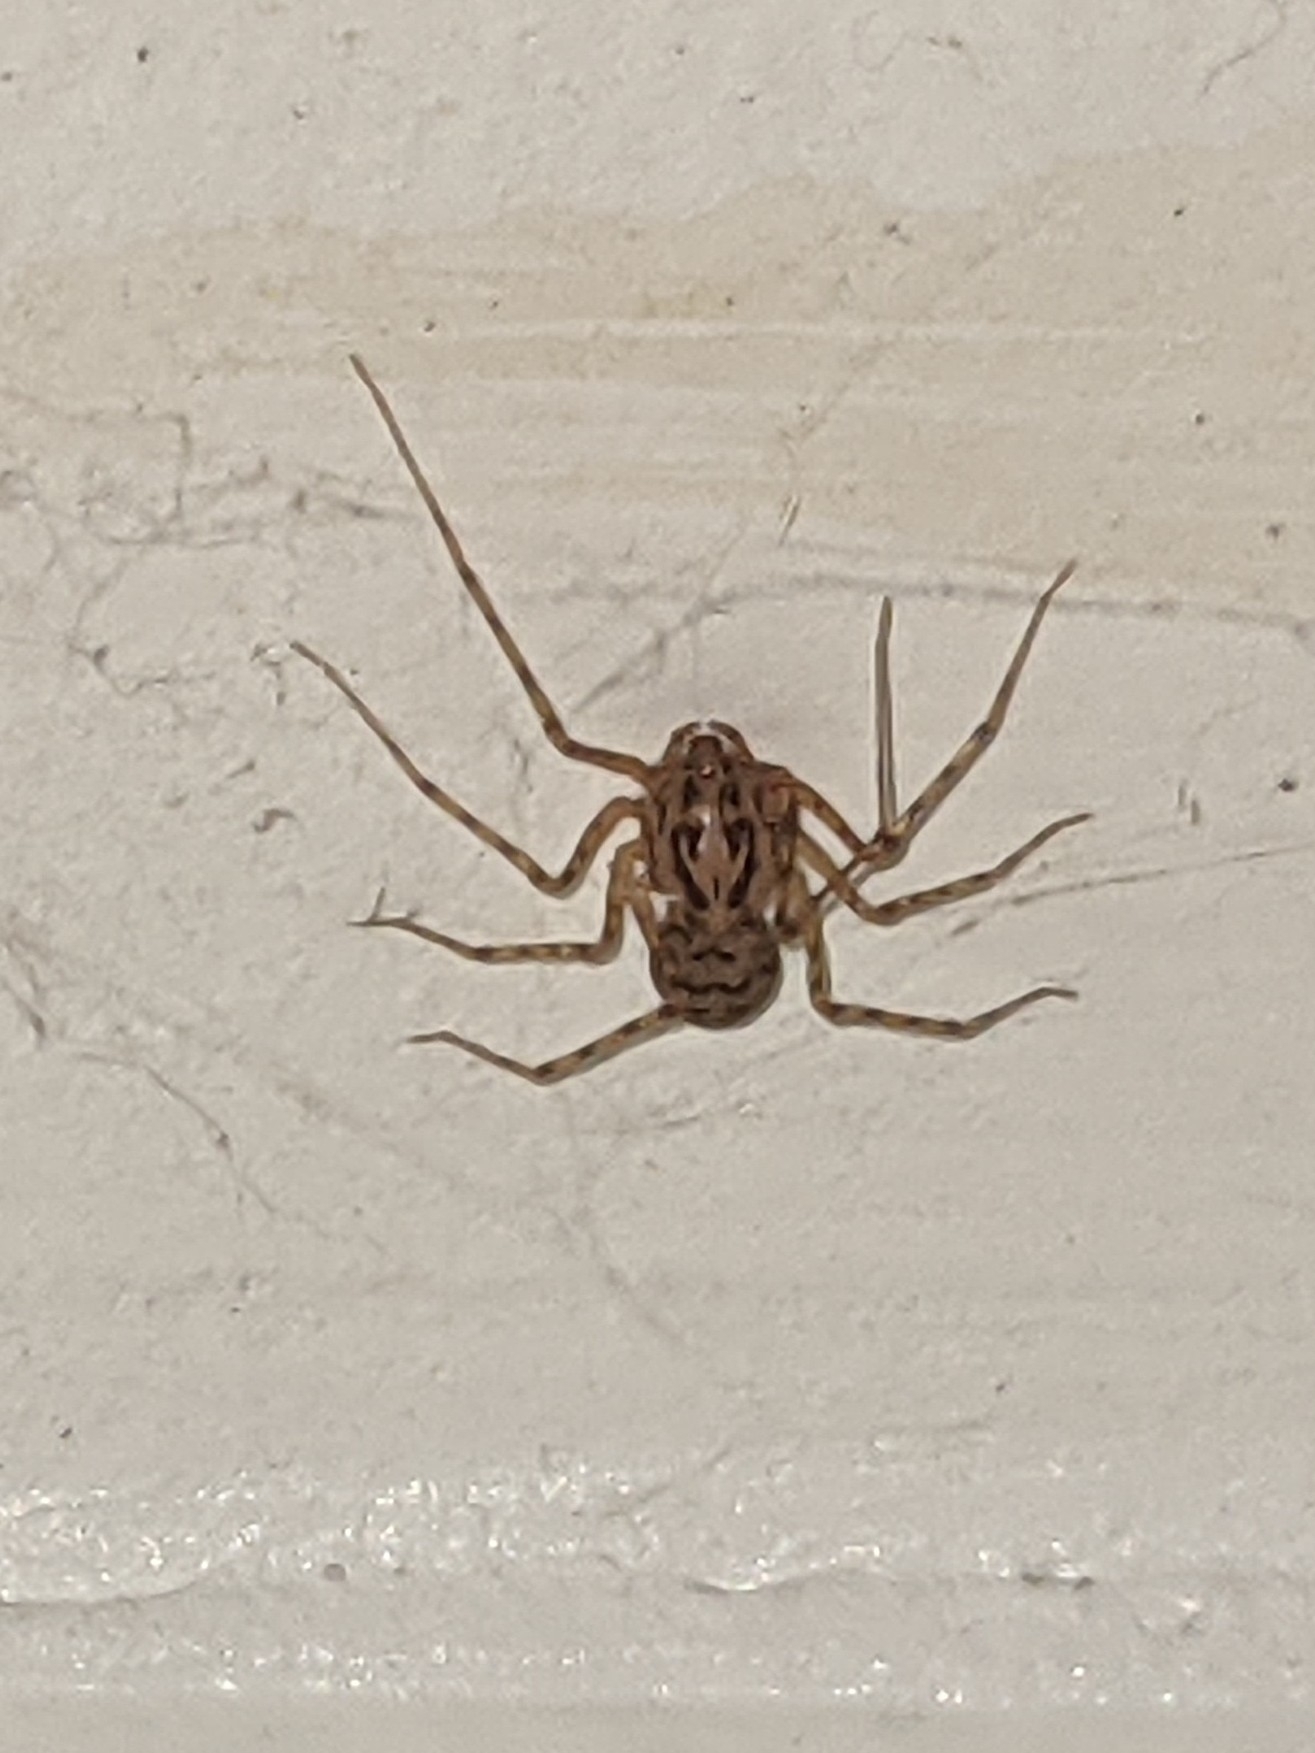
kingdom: Animalia
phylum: Arthropoda
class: Arachnida
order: Araneae
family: Scytodidae
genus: Scytodes
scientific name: Scytodes thoracica
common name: Spitting spider
